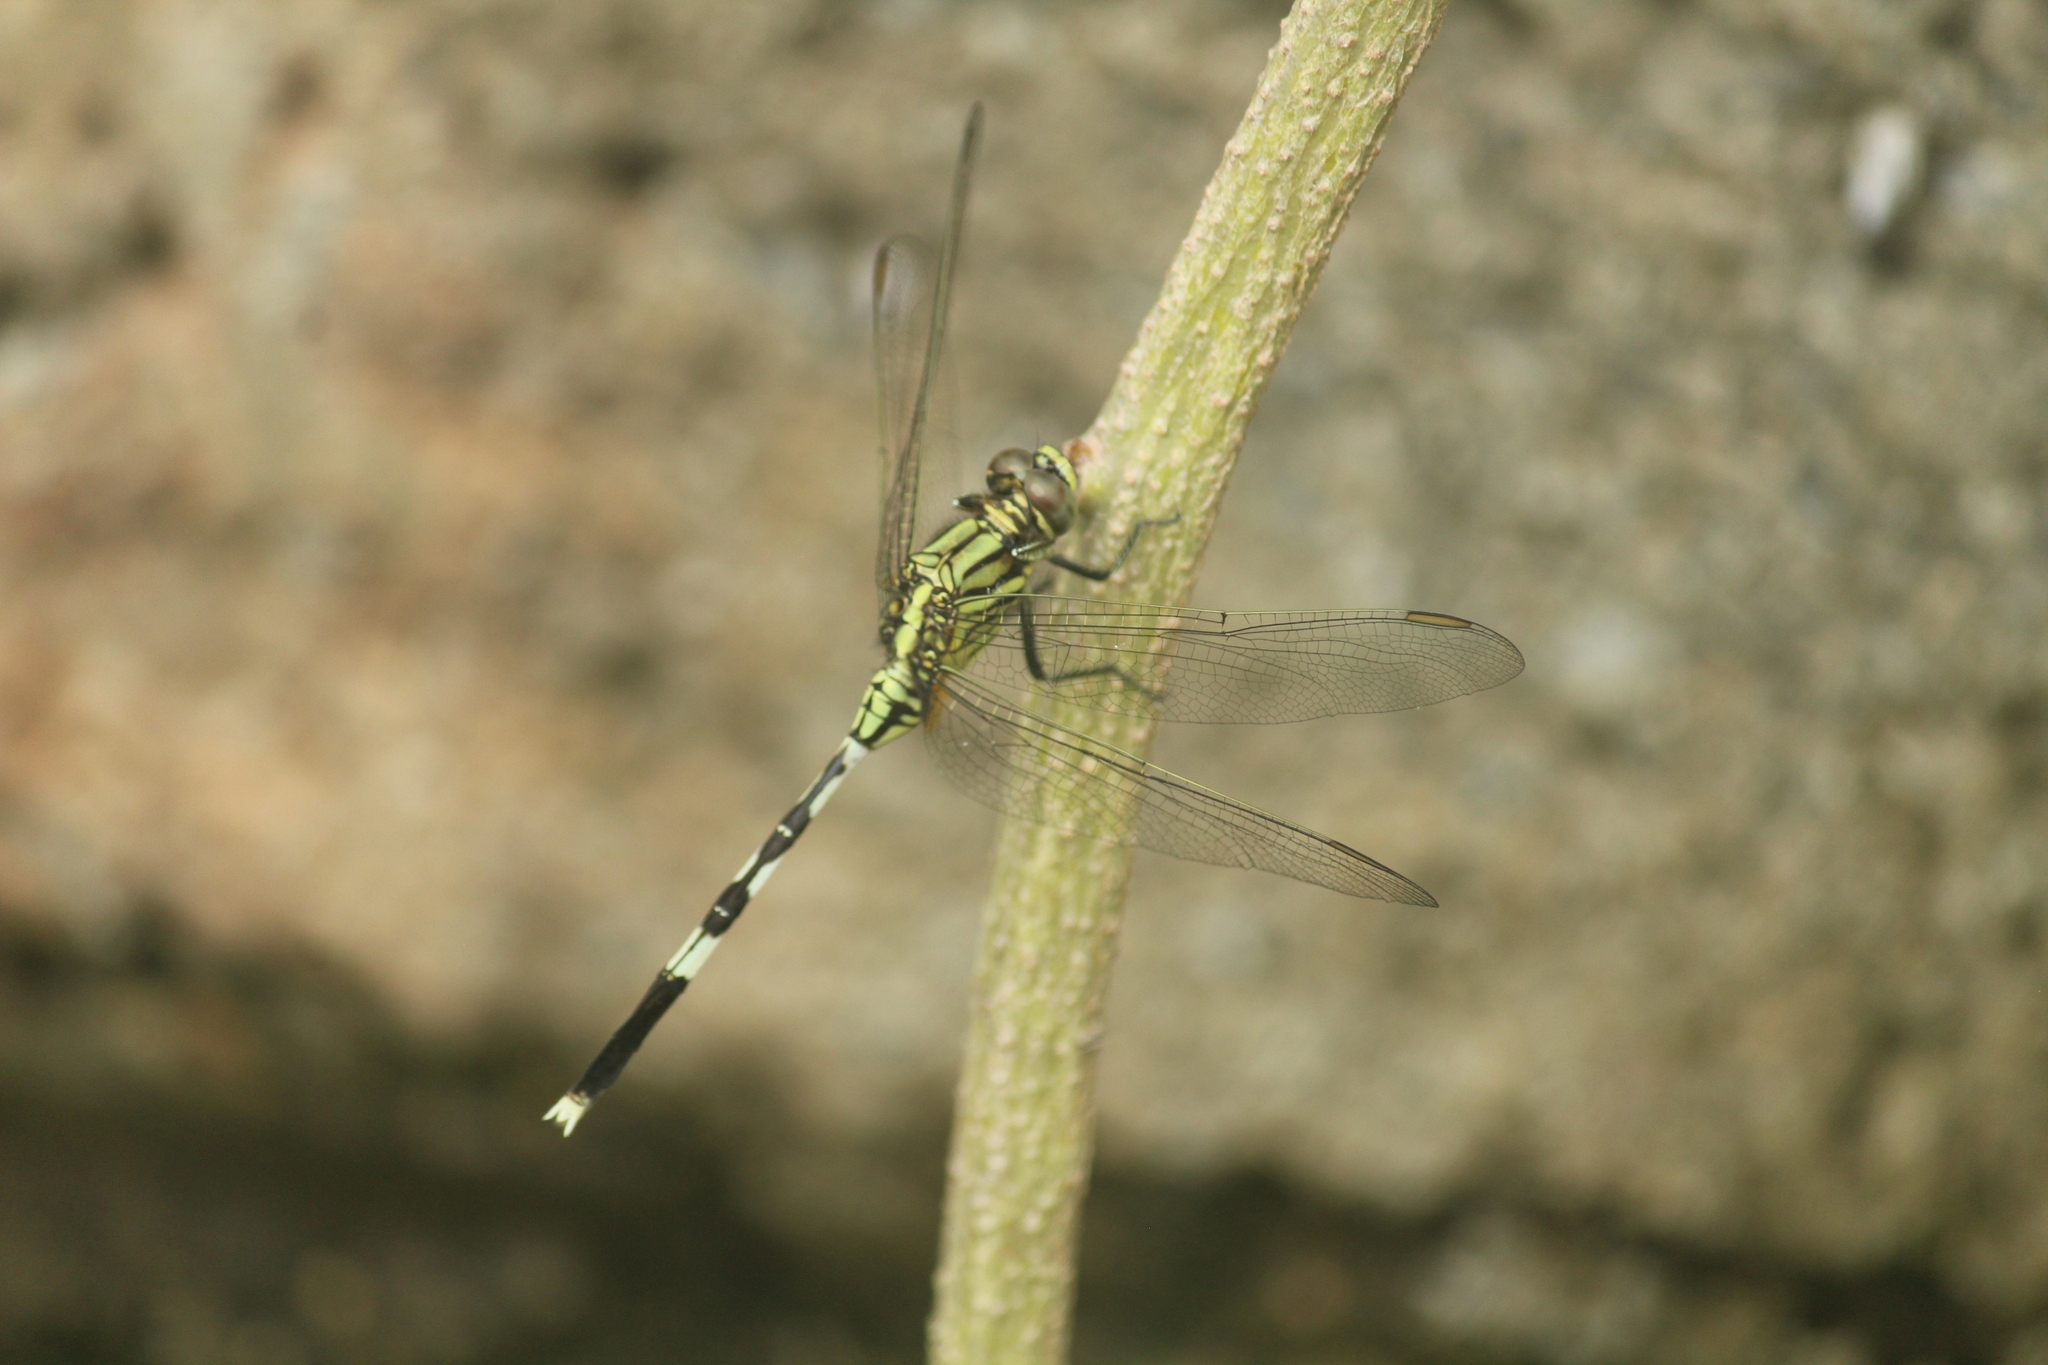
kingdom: Animalia
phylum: Arthropoda
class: Insecta
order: Odonata
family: Libellulidae
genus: Orthetrum
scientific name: Orthetrum sabina
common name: Slender skimmer
